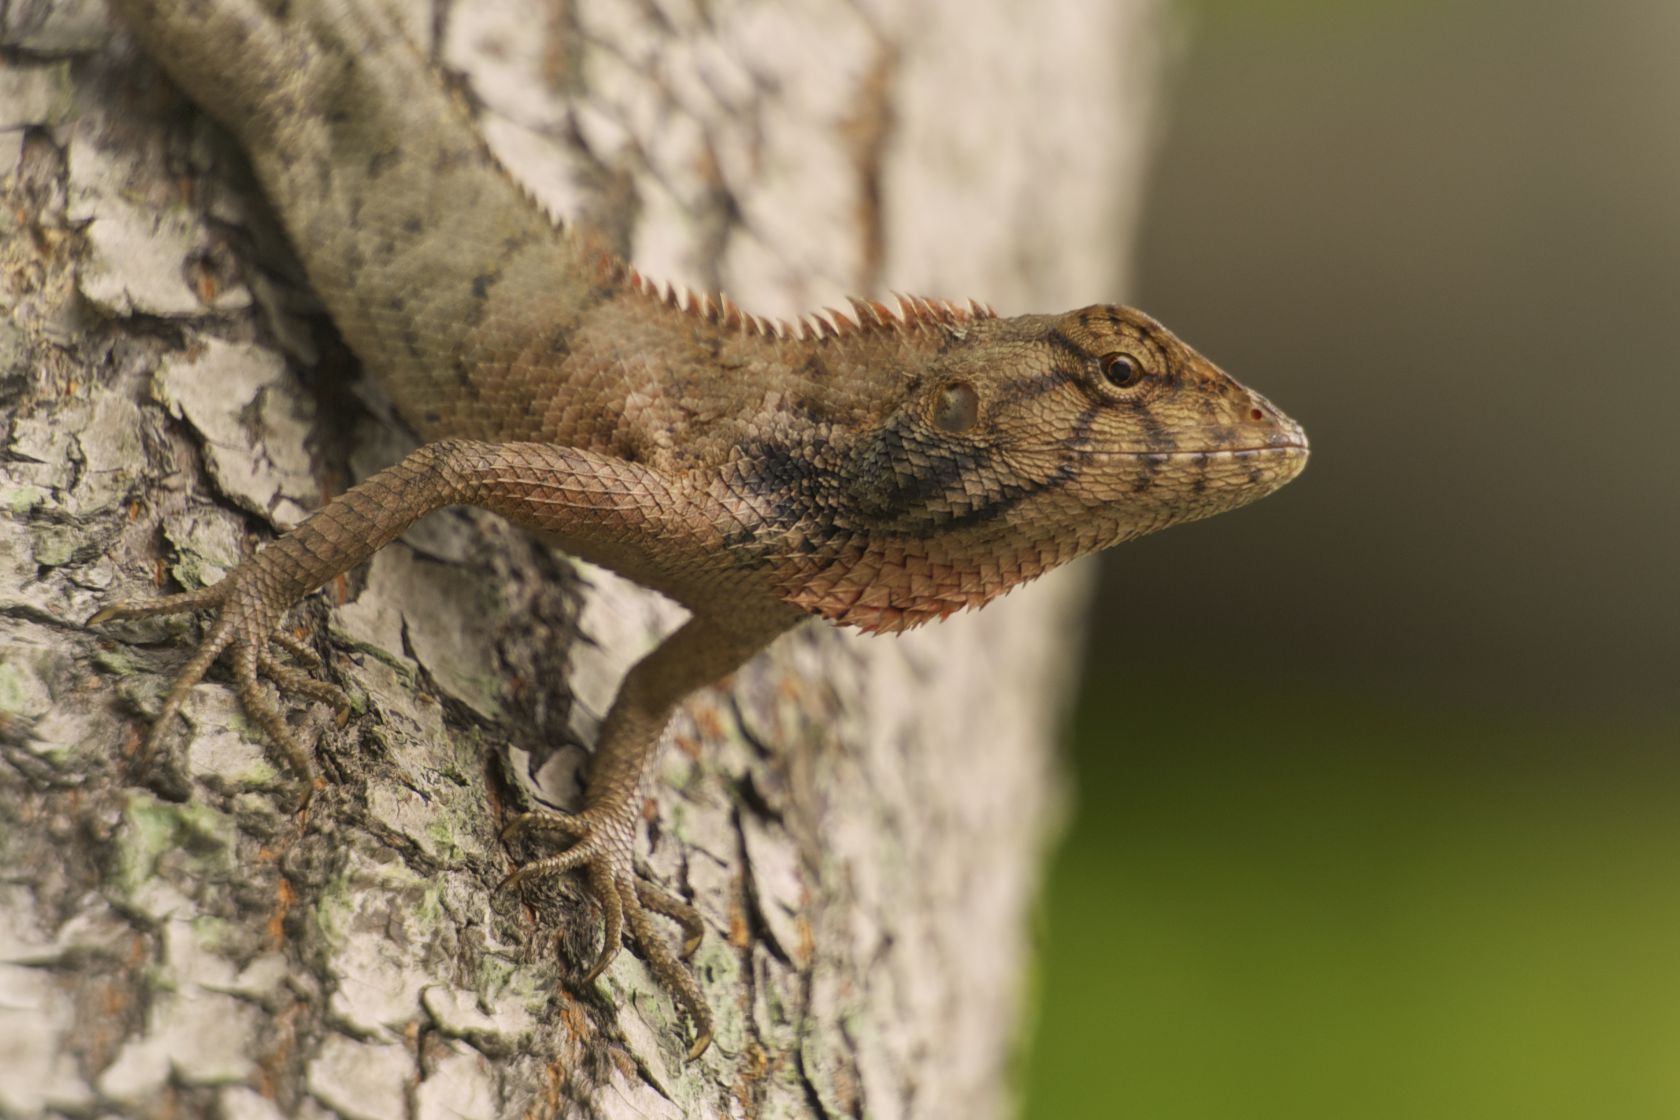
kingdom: Animalia
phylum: Chordata
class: Squamata
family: Agamidae
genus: Calotes
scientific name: Calotes versicolor
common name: Oriental garden lizard
